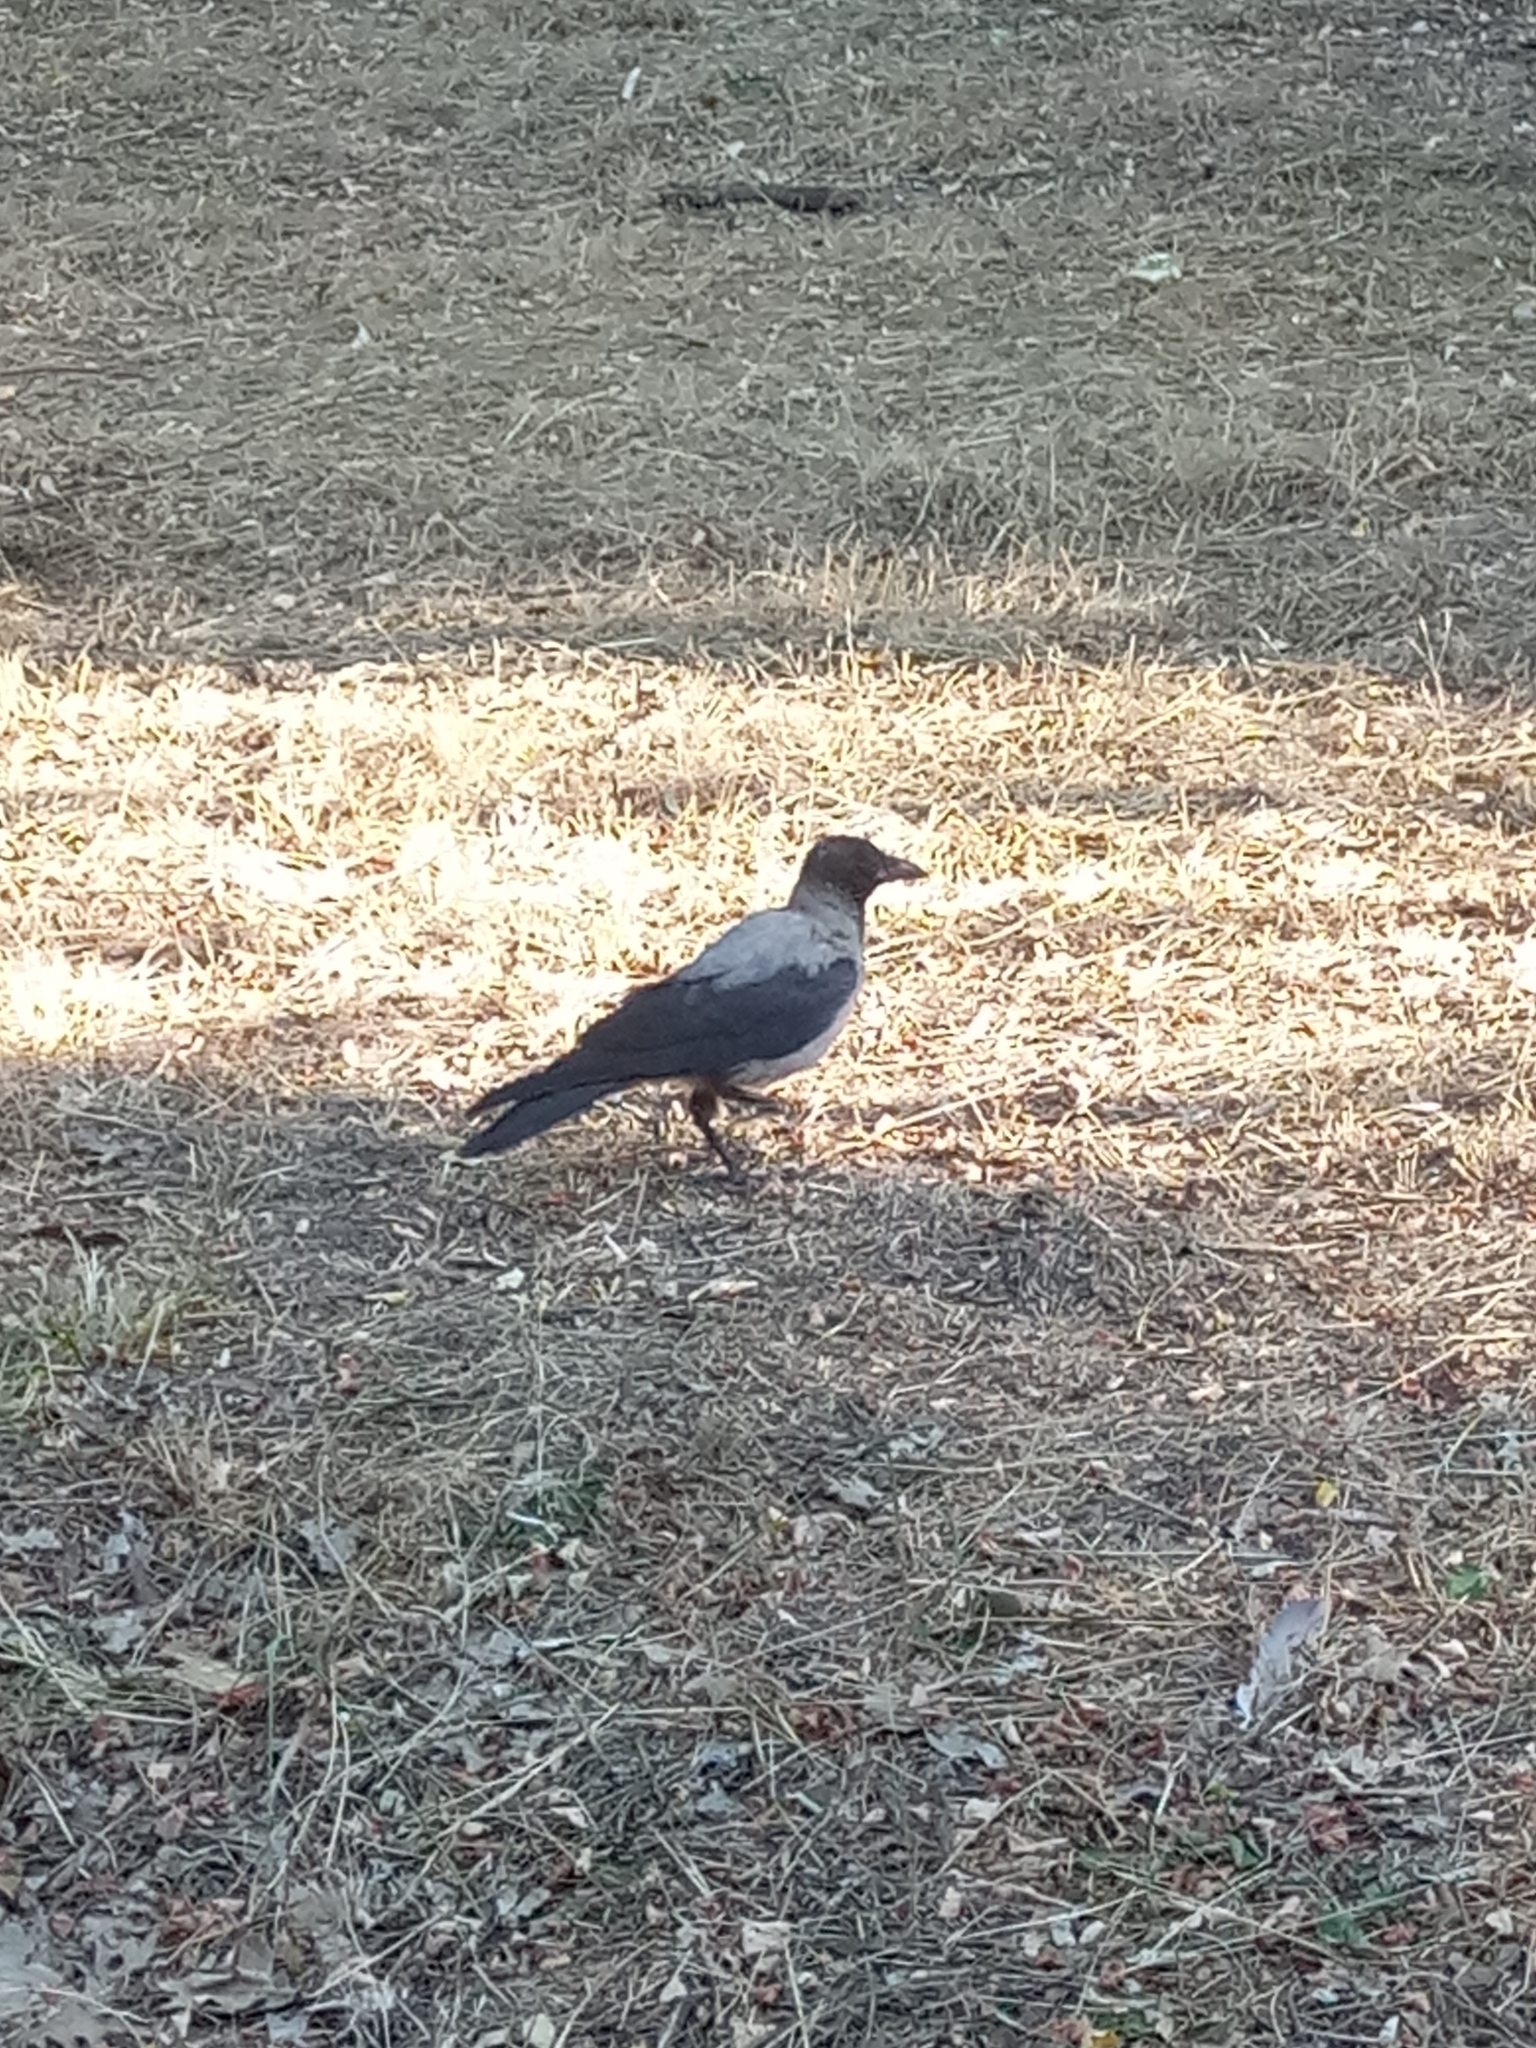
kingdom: Animalia
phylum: Chordata
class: Aves
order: Passeriformes
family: Corvidae
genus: Corvus
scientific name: Corvus cornix
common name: Hooded crow
